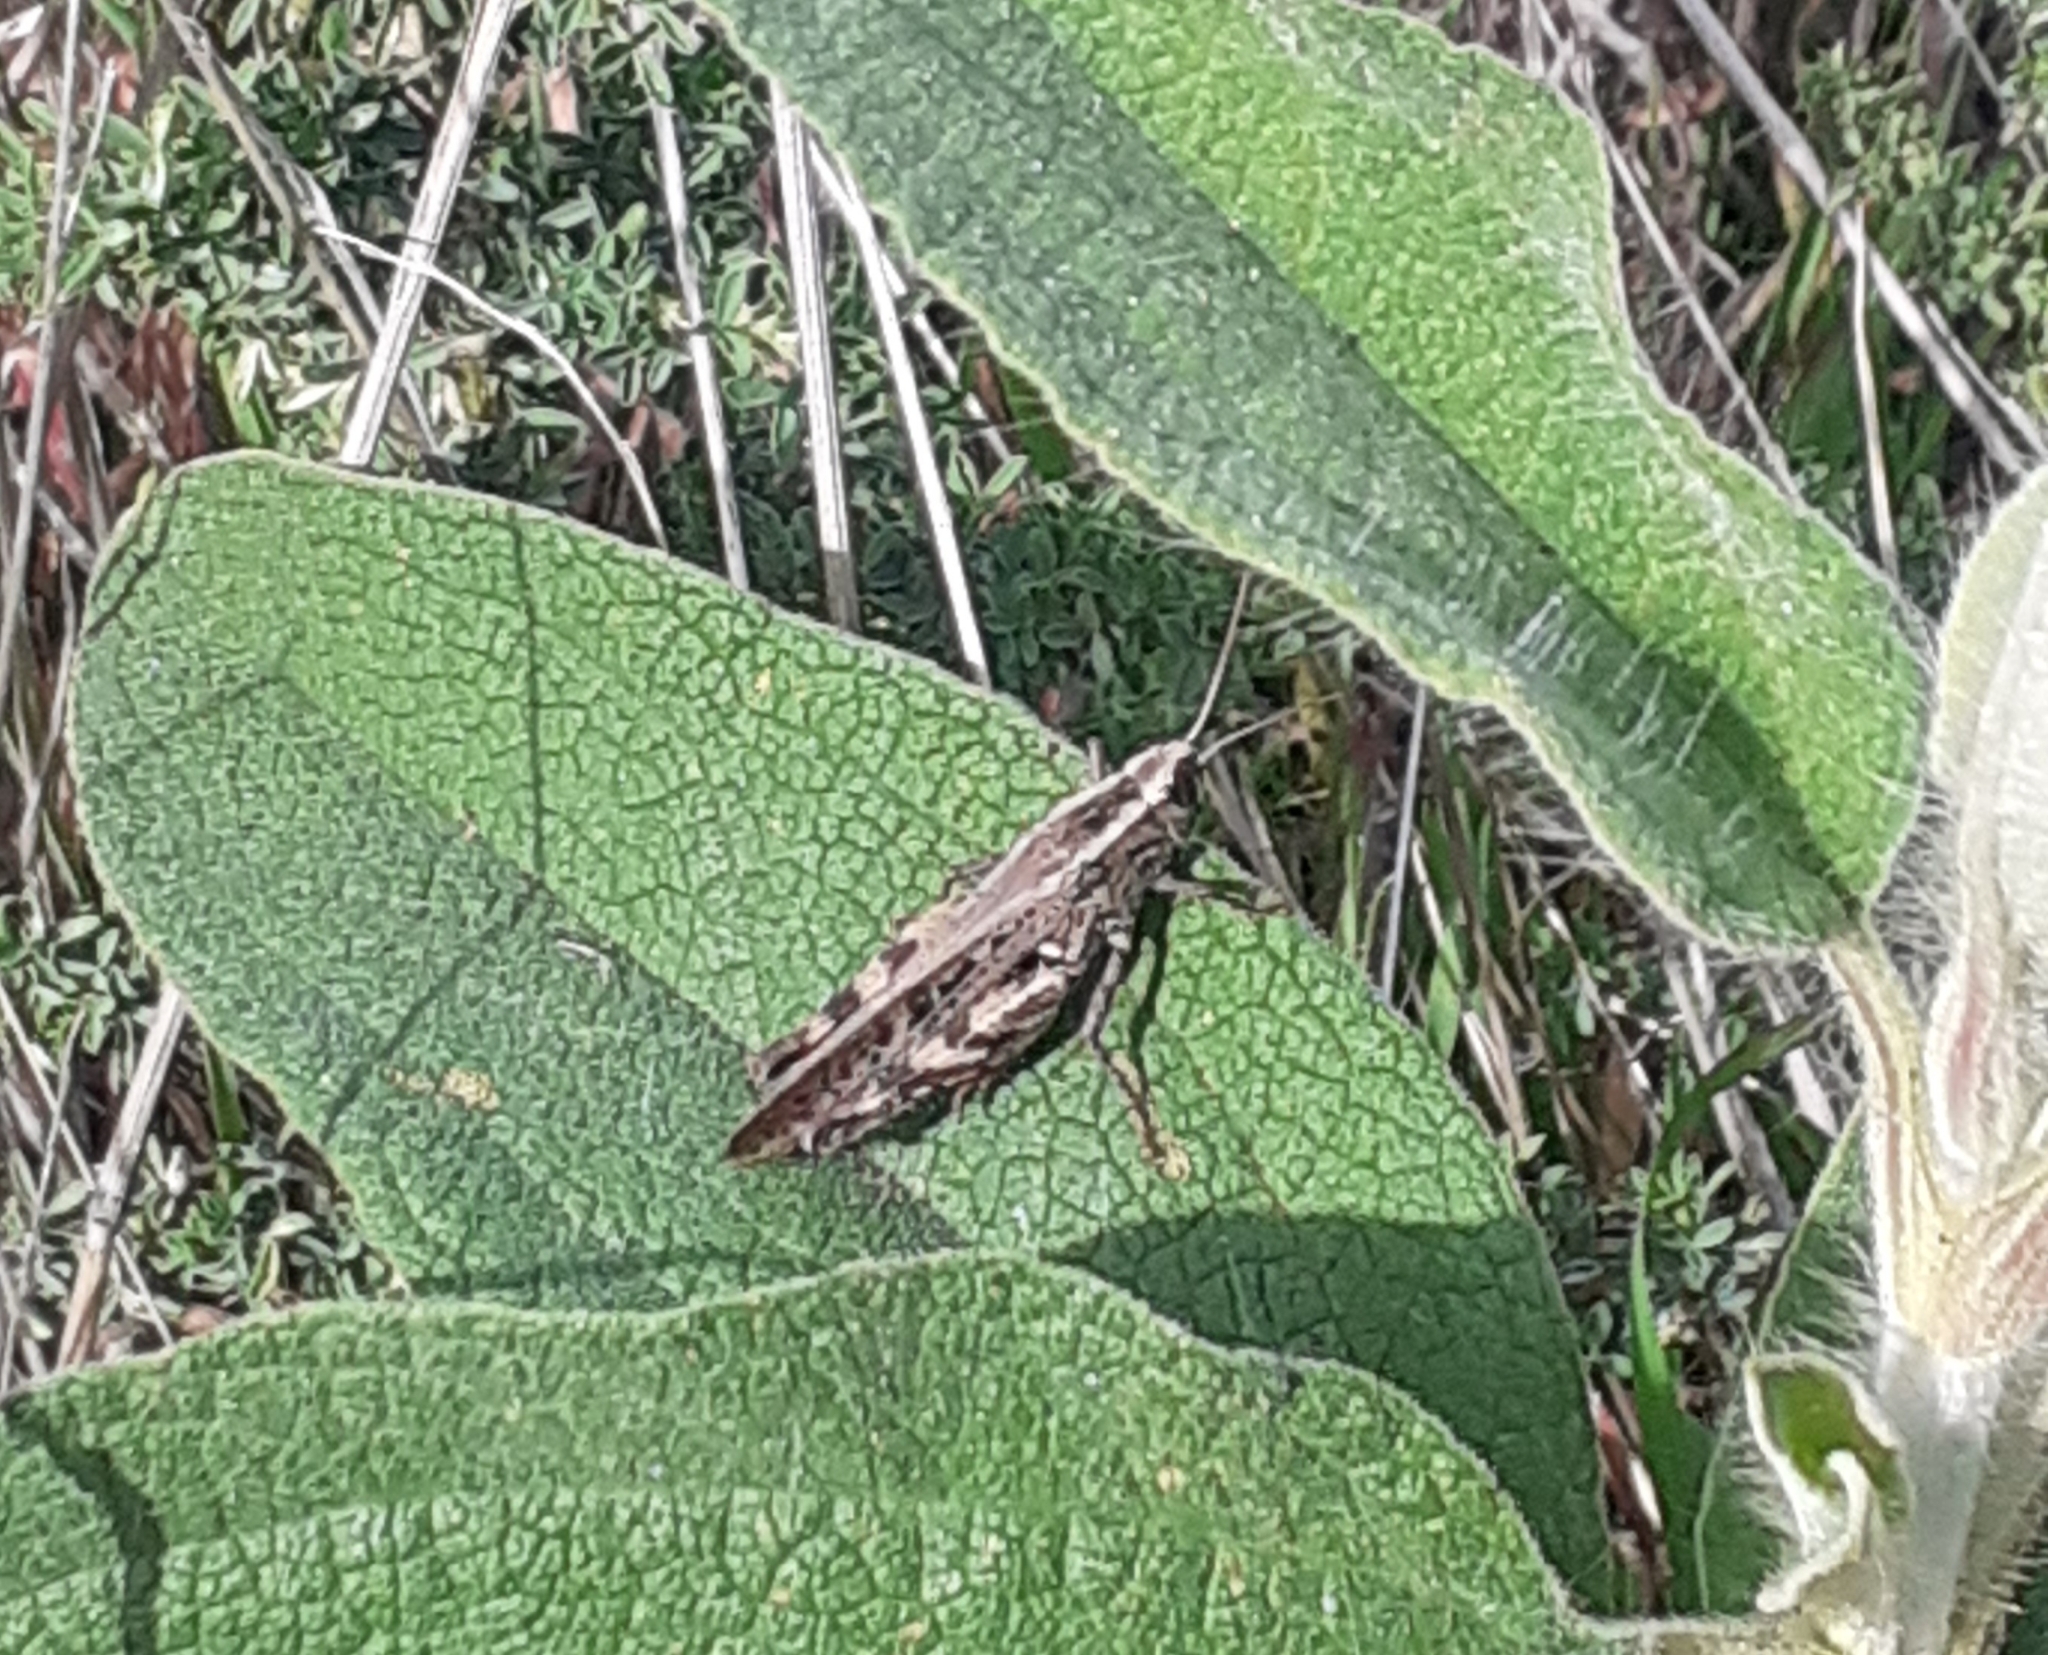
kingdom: Animalia
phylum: Arthropoda
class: Insecta
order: Orthoptera
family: Acrididae
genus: Calliptamus
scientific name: Calliptamus plebeius
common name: Canarian pincer grasshopper
